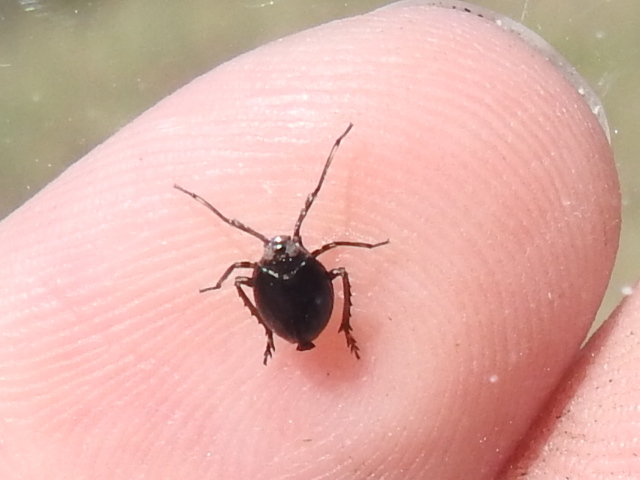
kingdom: Animalia
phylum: Arthropoda
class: Insecta
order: Hemiptera
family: Achilidae
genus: Isodaemon
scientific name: Isodaemon orontes
